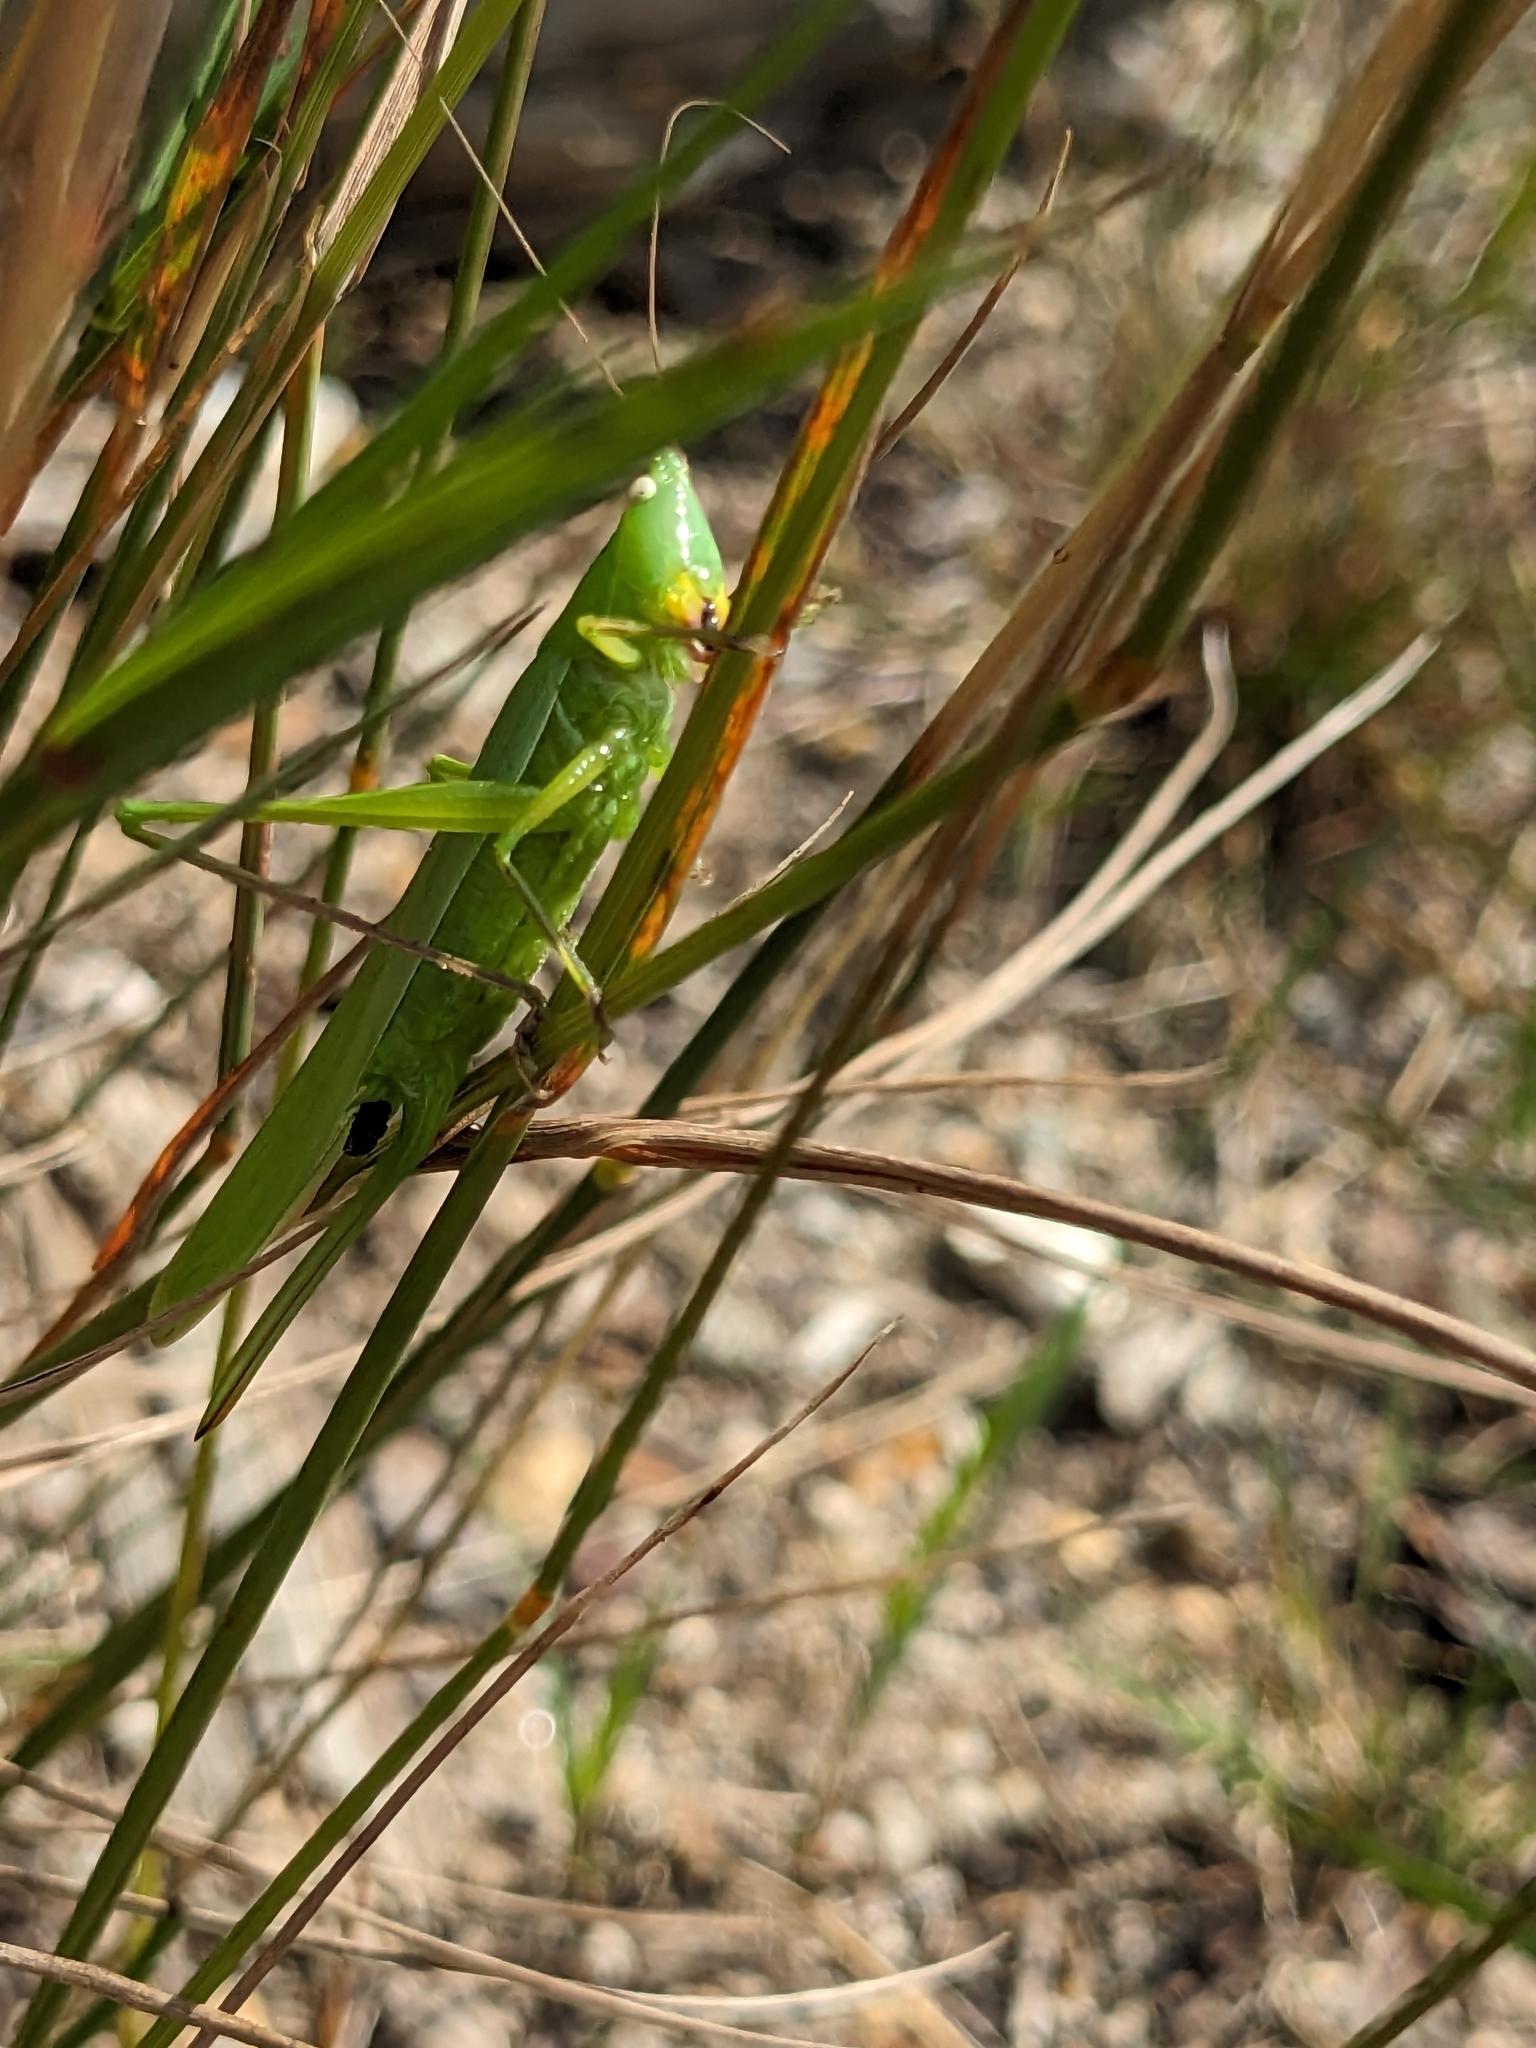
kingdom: Animalia
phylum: Arthropoda
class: Insecta
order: Orthoptera
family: Tettigoniidae
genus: Ruspolia
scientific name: Ruspolia nitidula
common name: Large conehead
